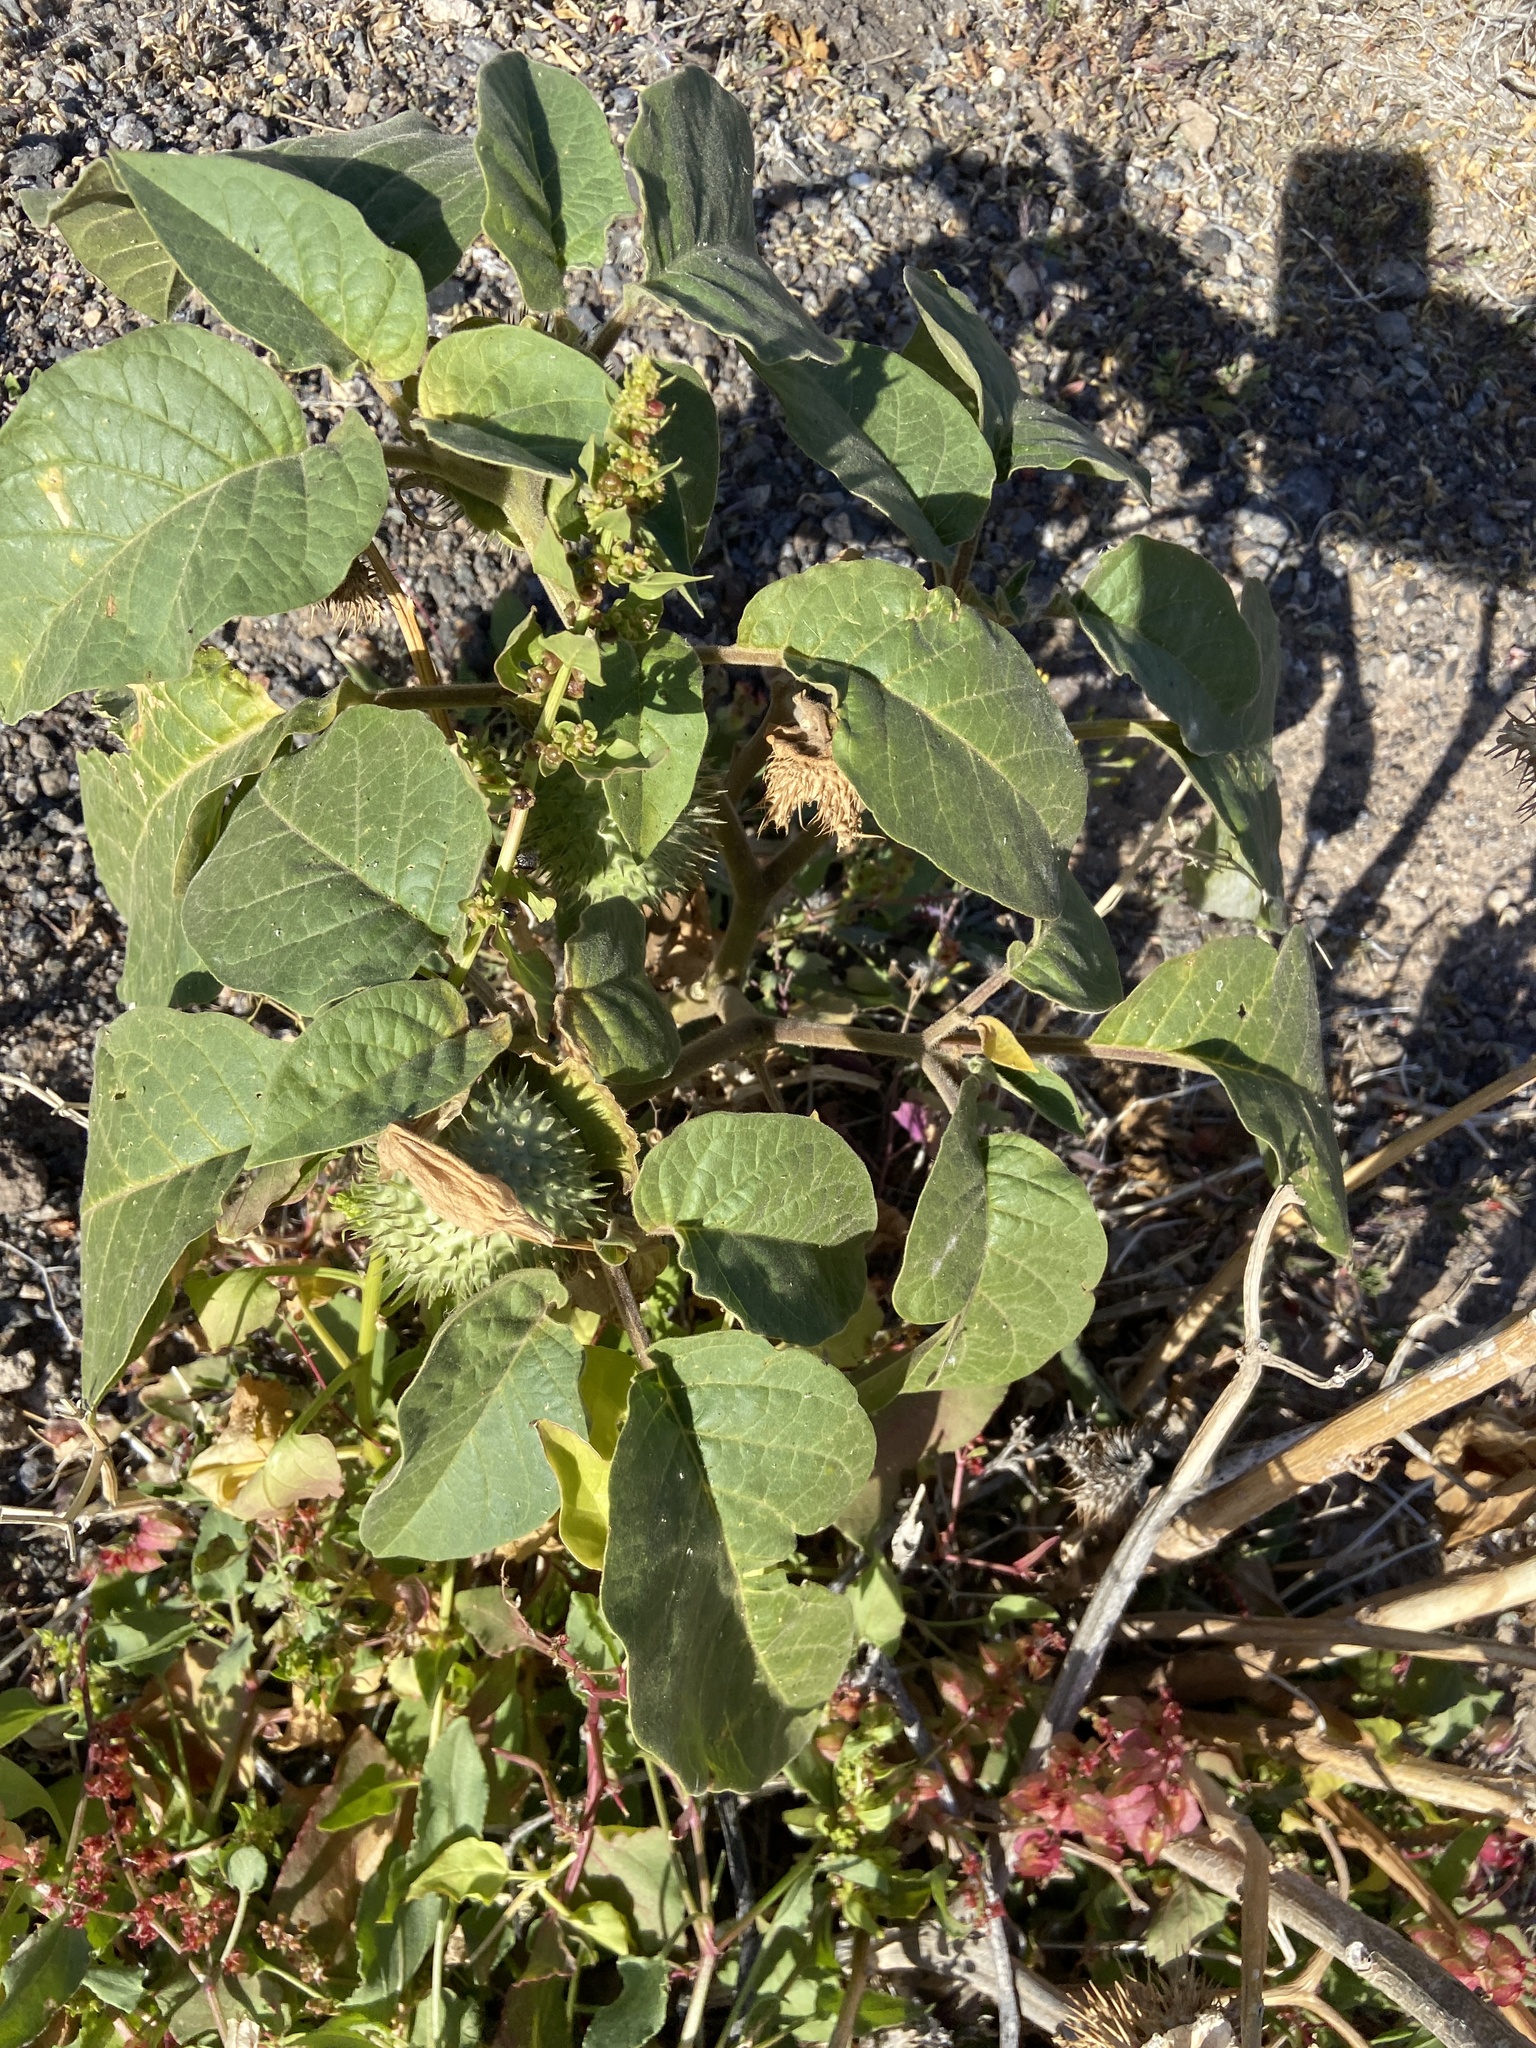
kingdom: Plantae
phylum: Tracheophyta
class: Magnoliopsida
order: Solanales
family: Solanaceae
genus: Datura
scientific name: Datura innoxia
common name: Downy thorn-apple
